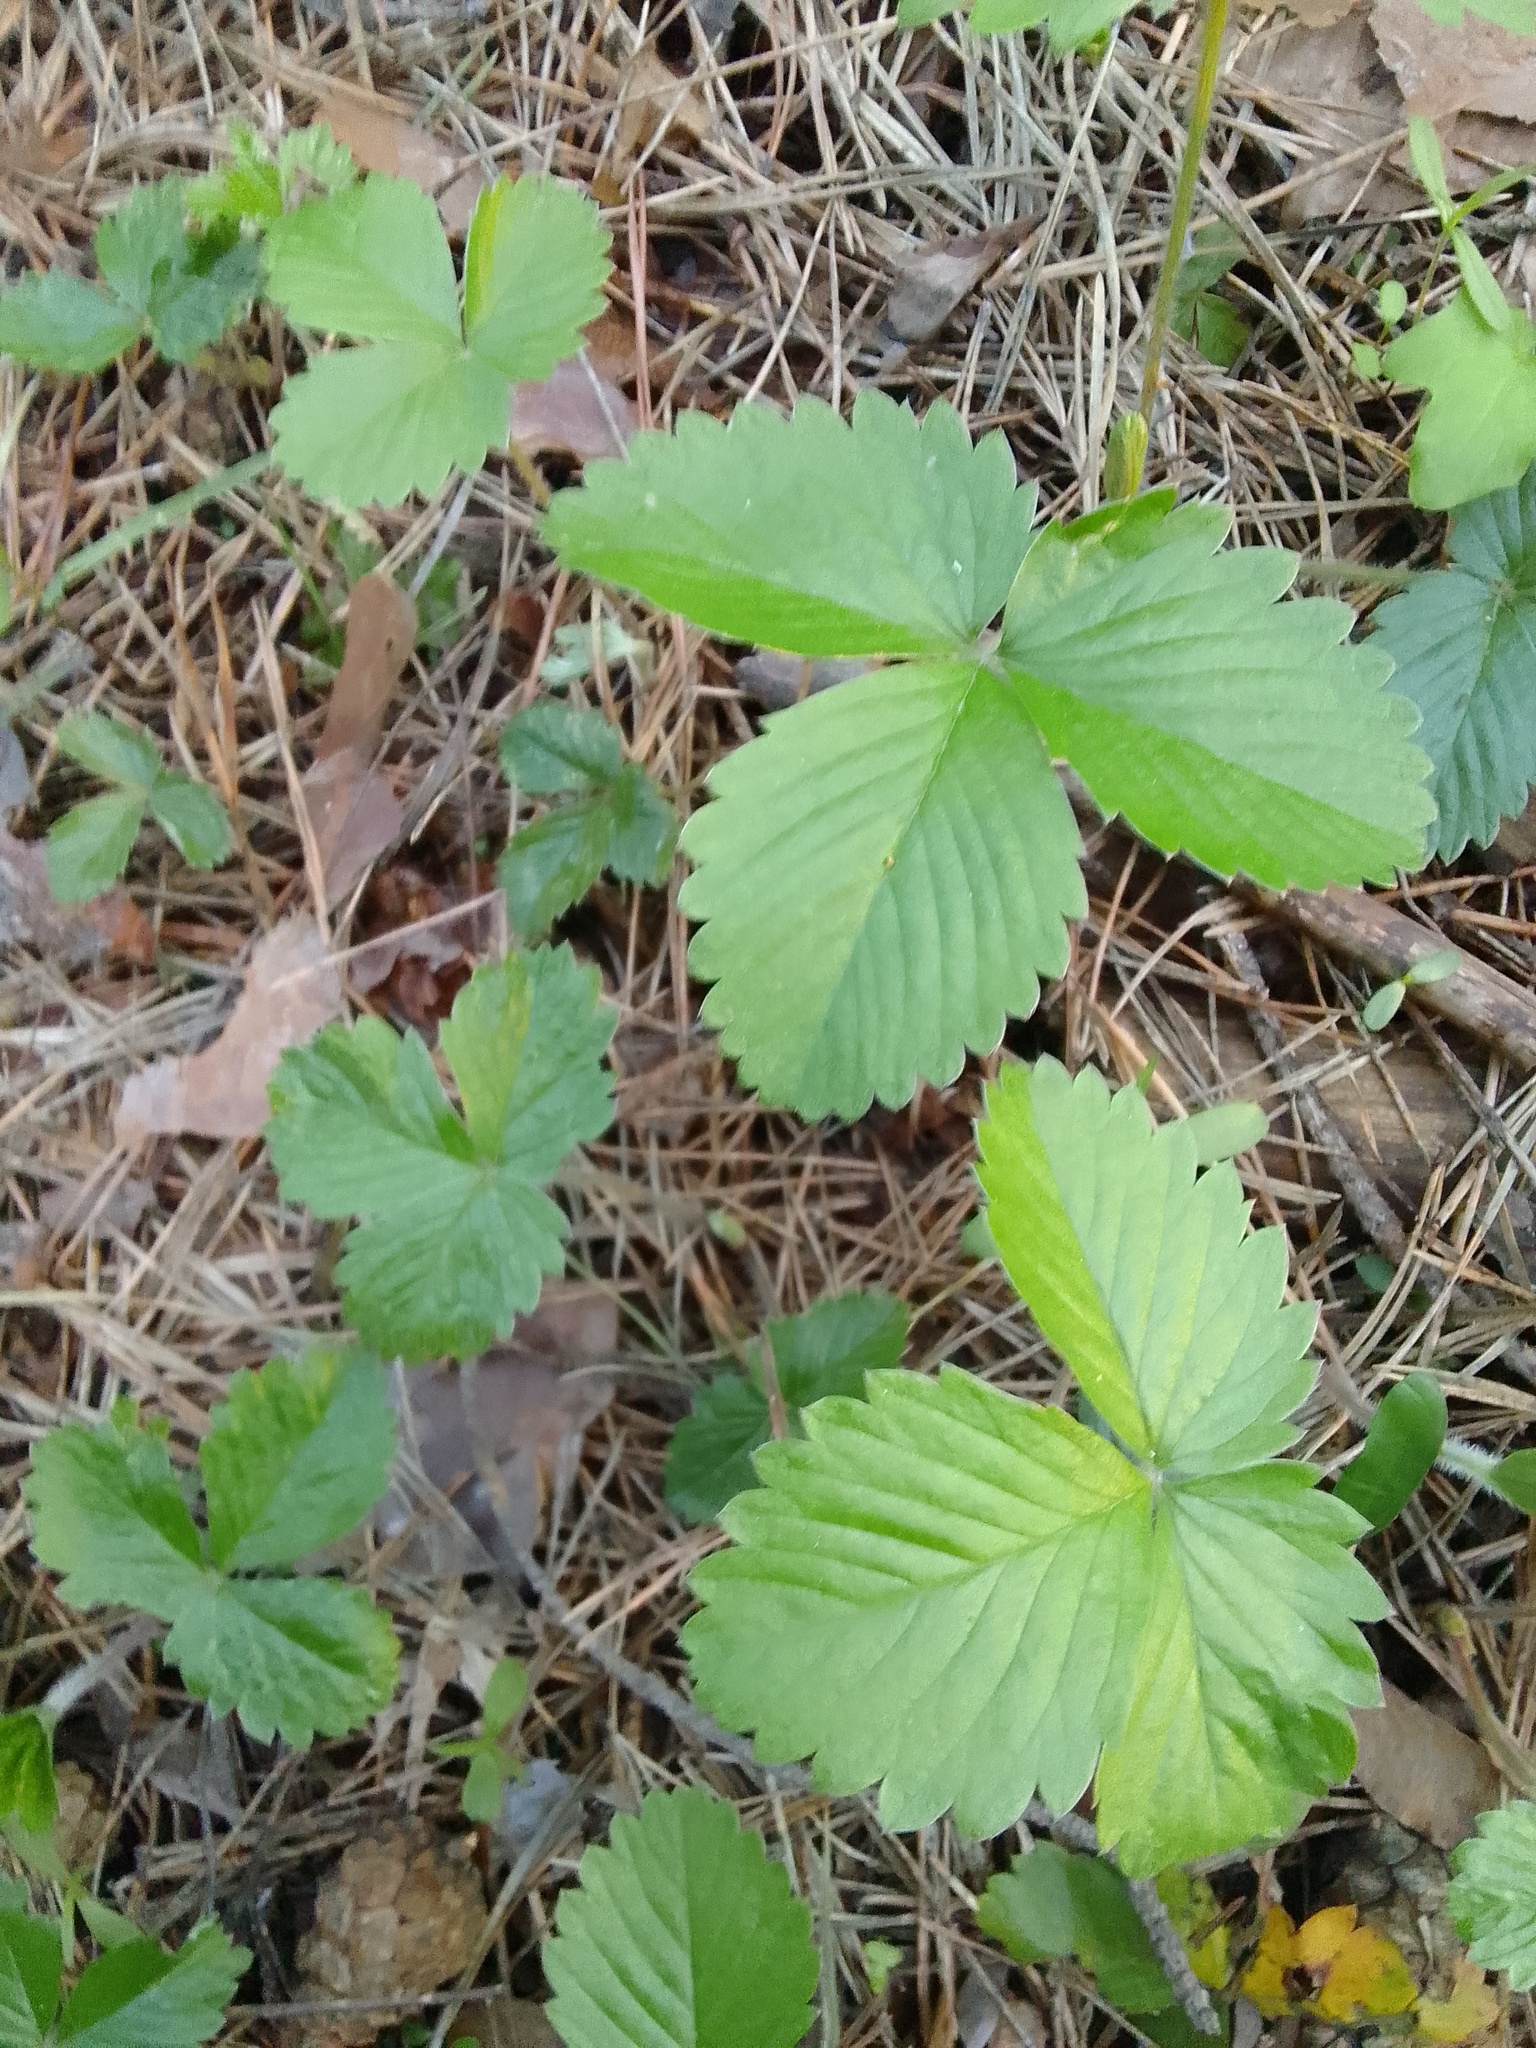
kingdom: Plantae
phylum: Tracheophyta
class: Magnoliopsida
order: Rosales
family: Rosaceae
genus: Fragaria
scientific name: Fragaria vesca
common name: Wild strawberry
